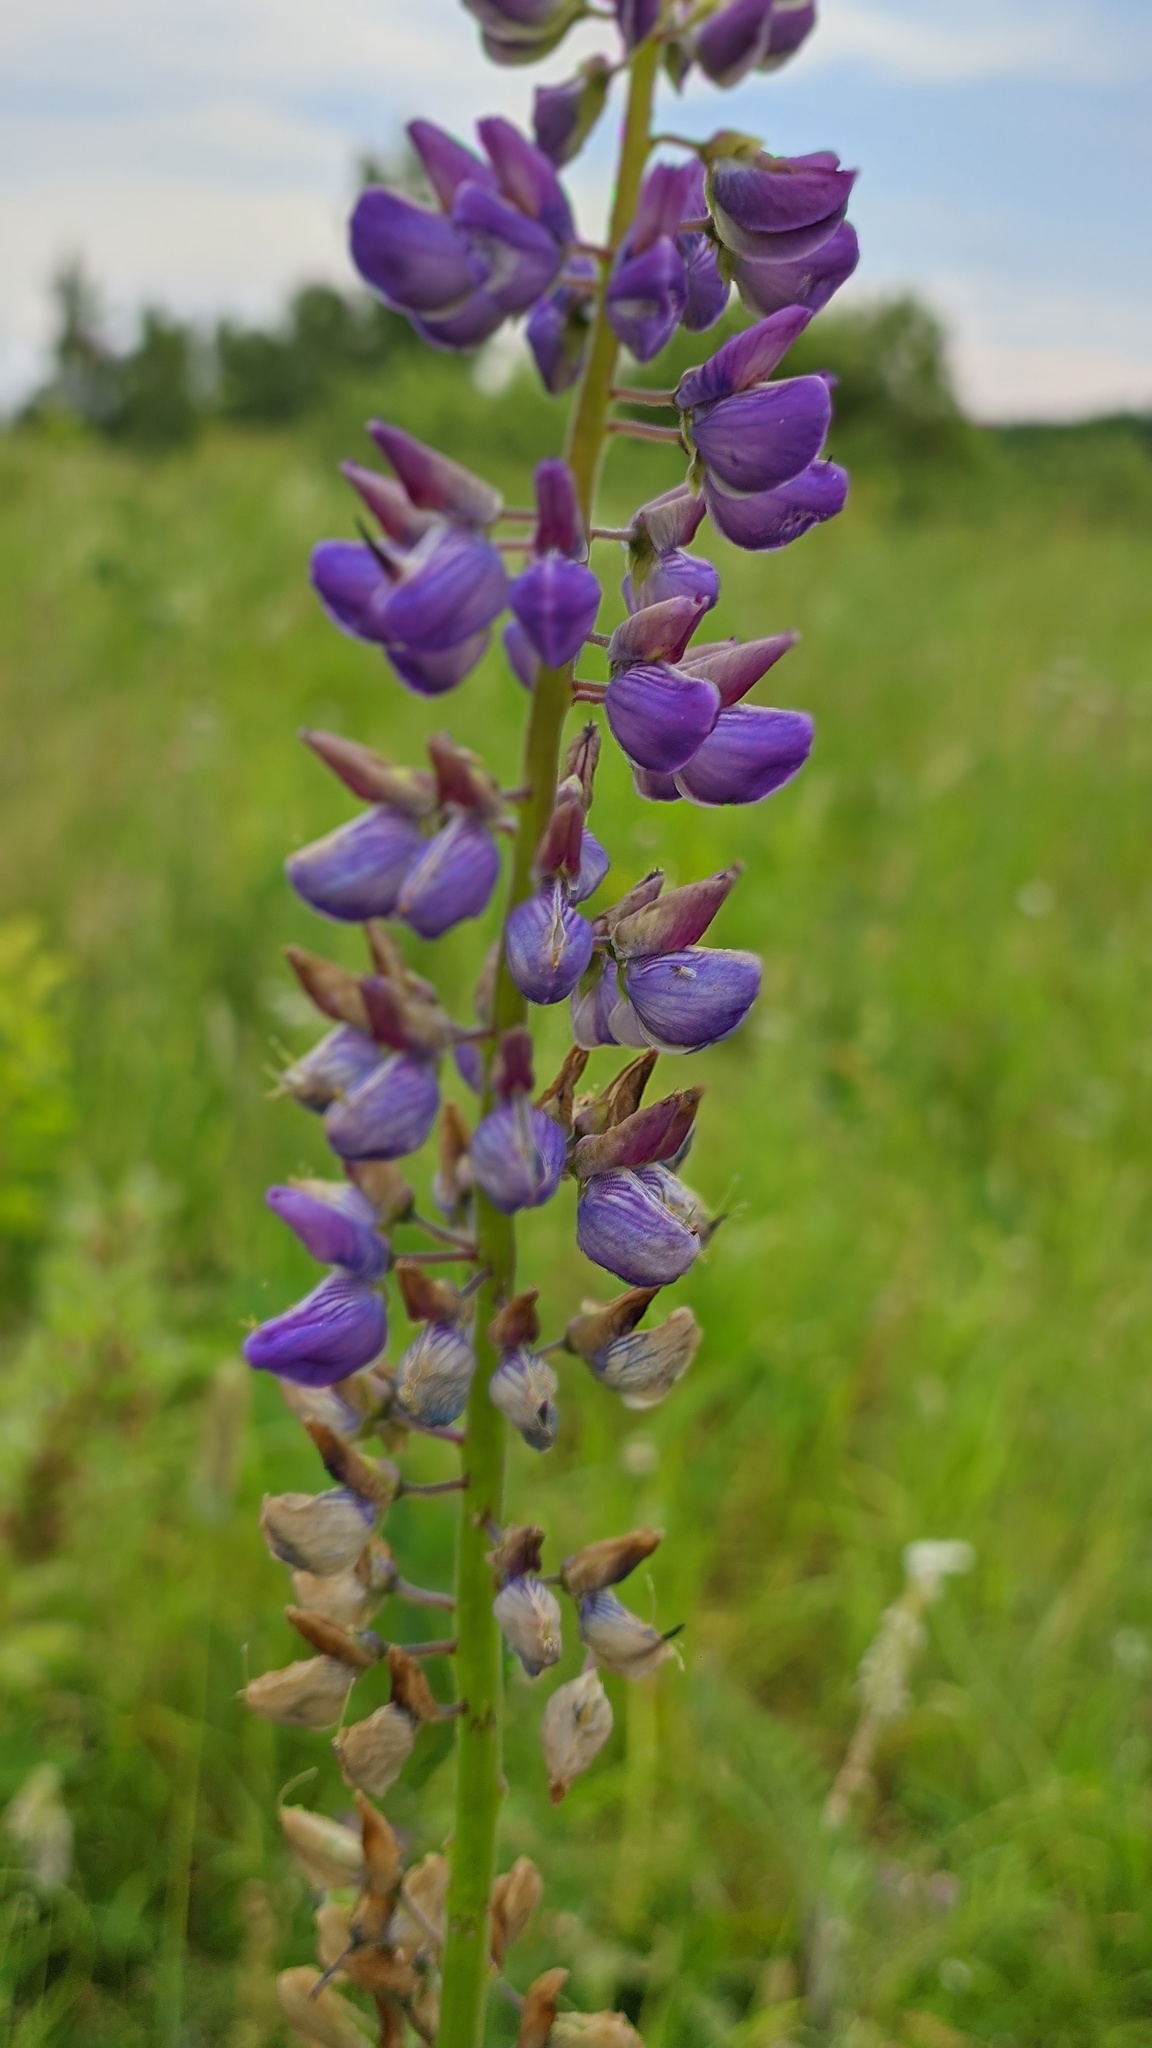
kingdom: Plantae
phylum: Tracheophyta
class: Magnoliopsida
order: Fabales
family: Fabaceae
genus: Lupinus
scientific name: Lupinus polyphyllus
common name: Garden lupin
